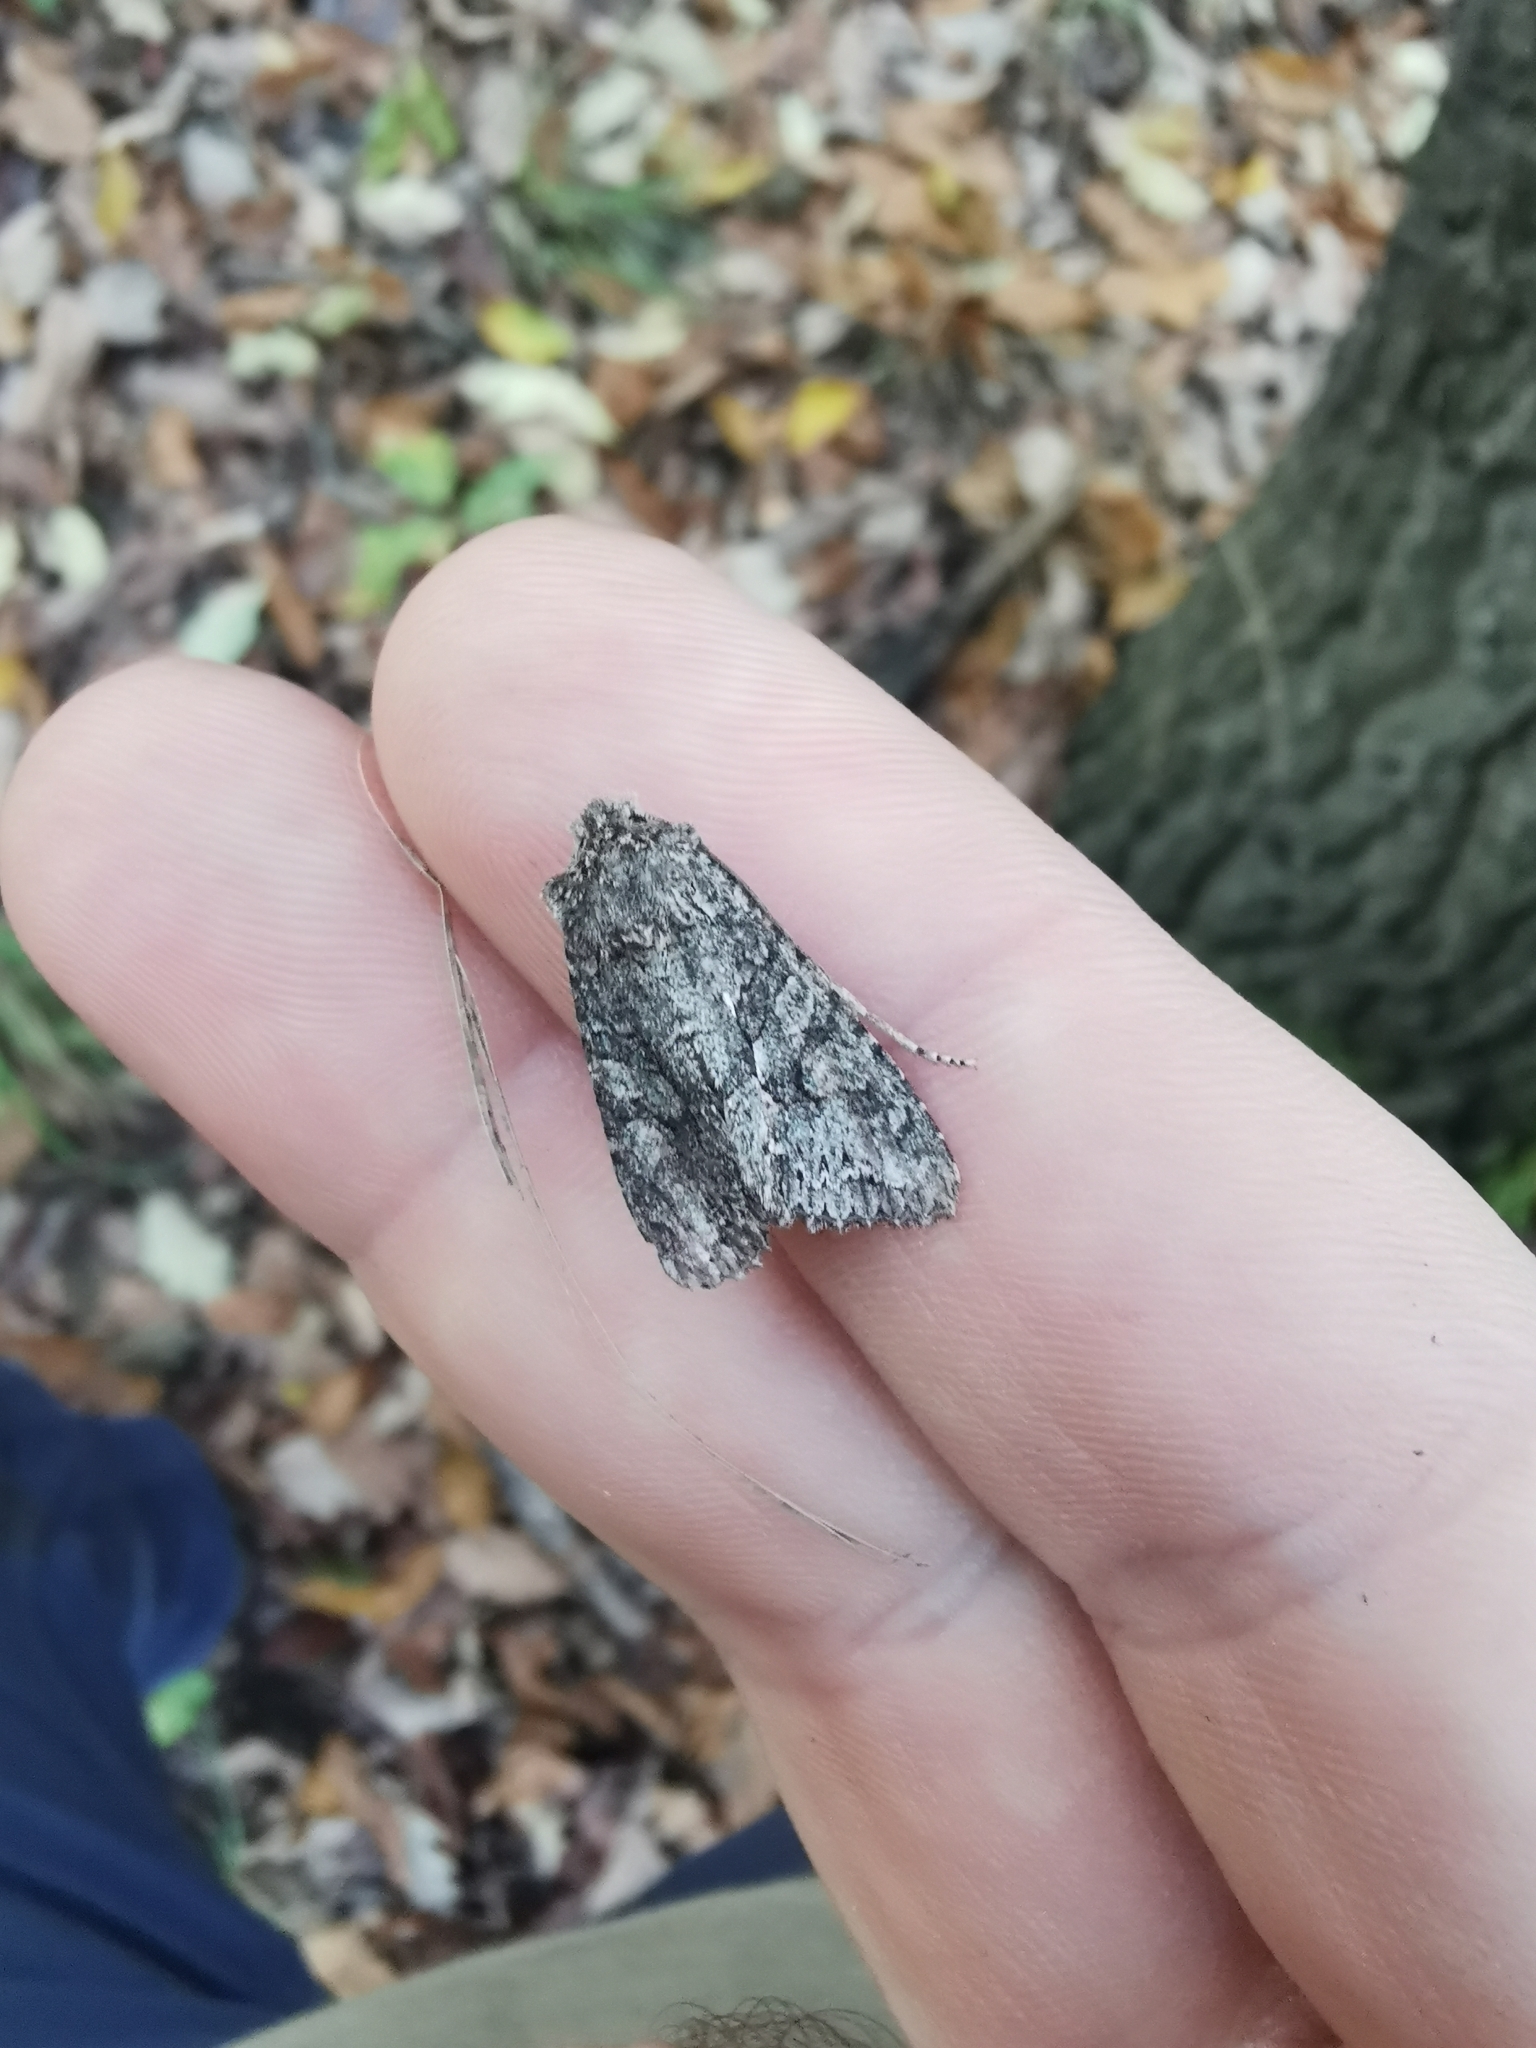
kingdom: Animalia
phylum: Arthropoda
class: Insecta
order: Lepidoptera
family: Noctuidae
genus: Dryobotodes
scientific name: Dryobotodes eremita
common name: Brindled green
